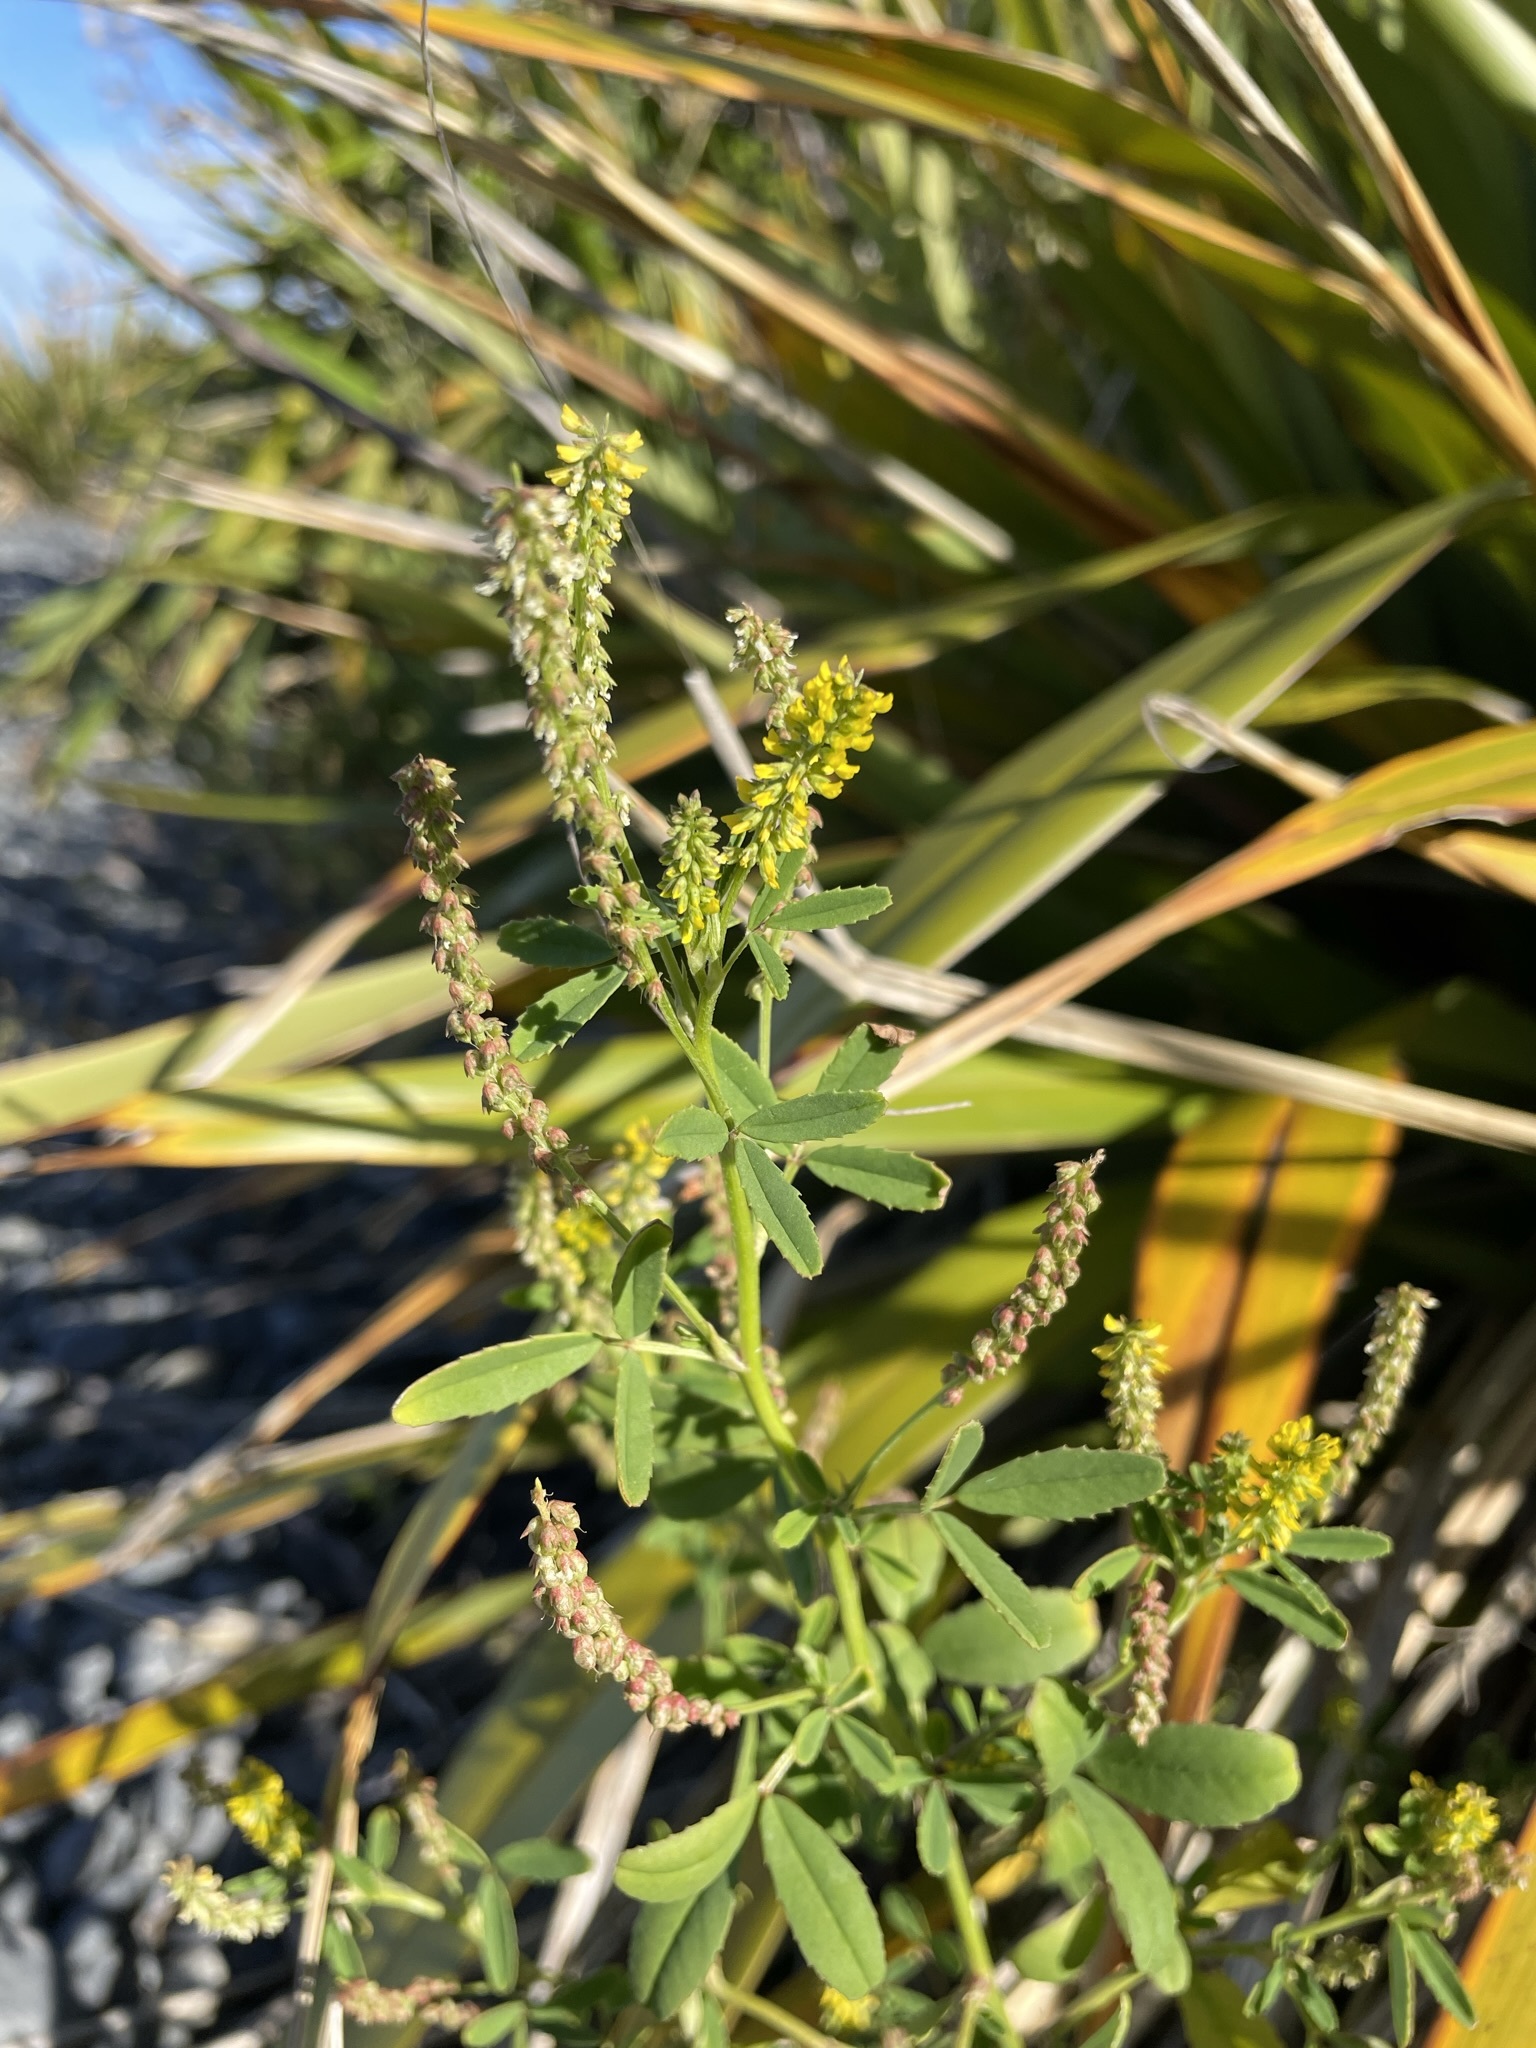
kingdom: Plantae
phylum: Tracheophyta
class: Magnoliopsida
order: Fabales
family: Fabaceae
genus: Melilotus
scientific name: Melilotus indicus
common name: Small melilot
